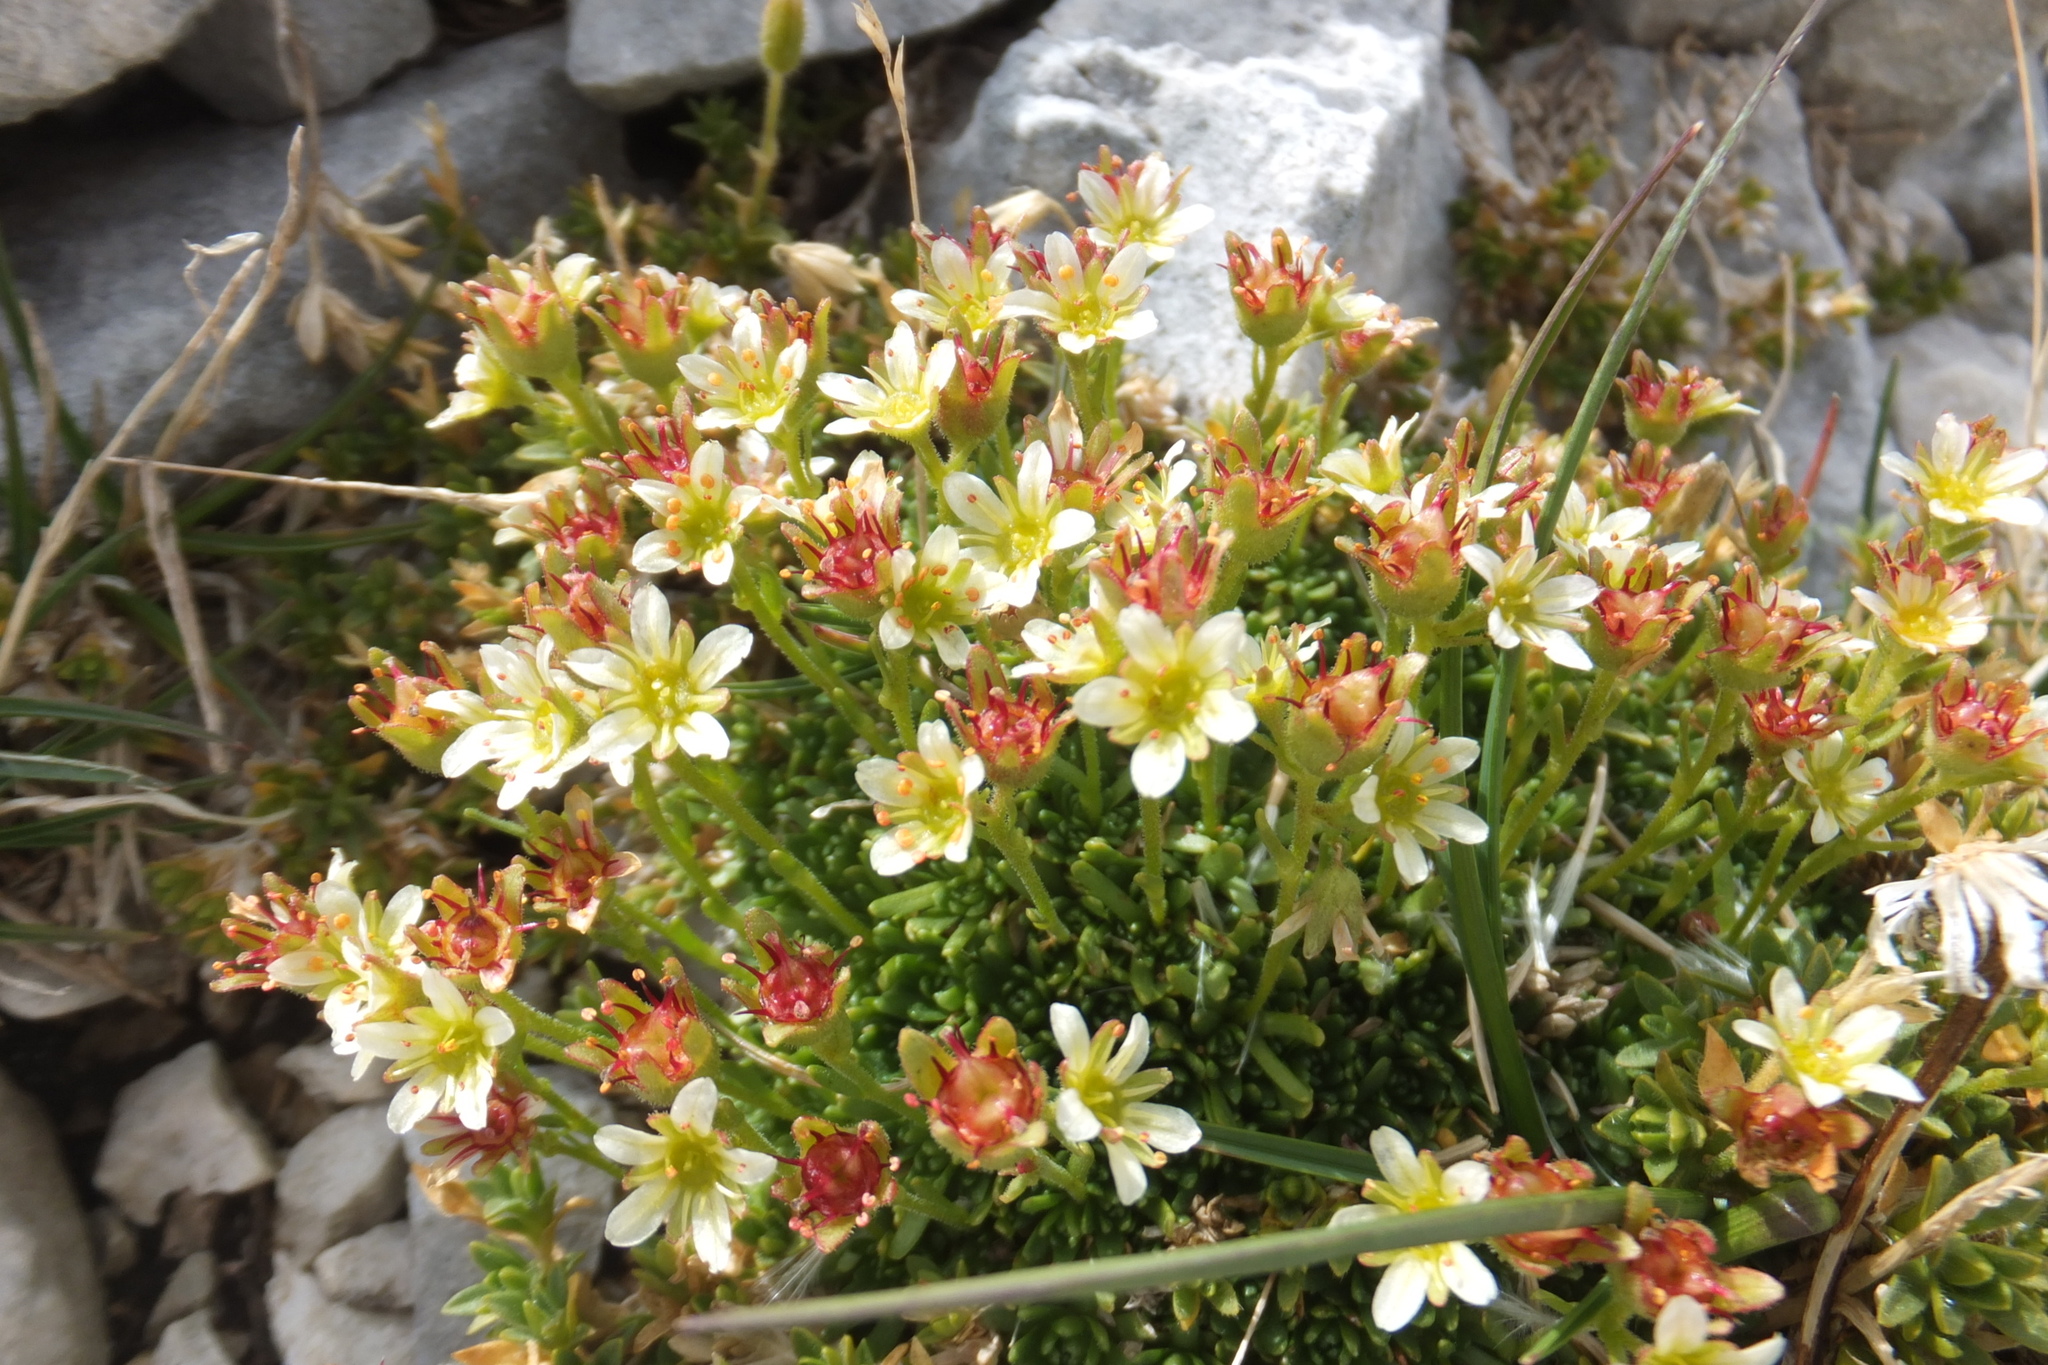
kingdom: Plantae
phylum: Tracheophyta
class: Magnoliopsida
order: Saxifragales
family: Saxifragaceae
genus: Saxifraga
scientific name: Saxifraga exarata
